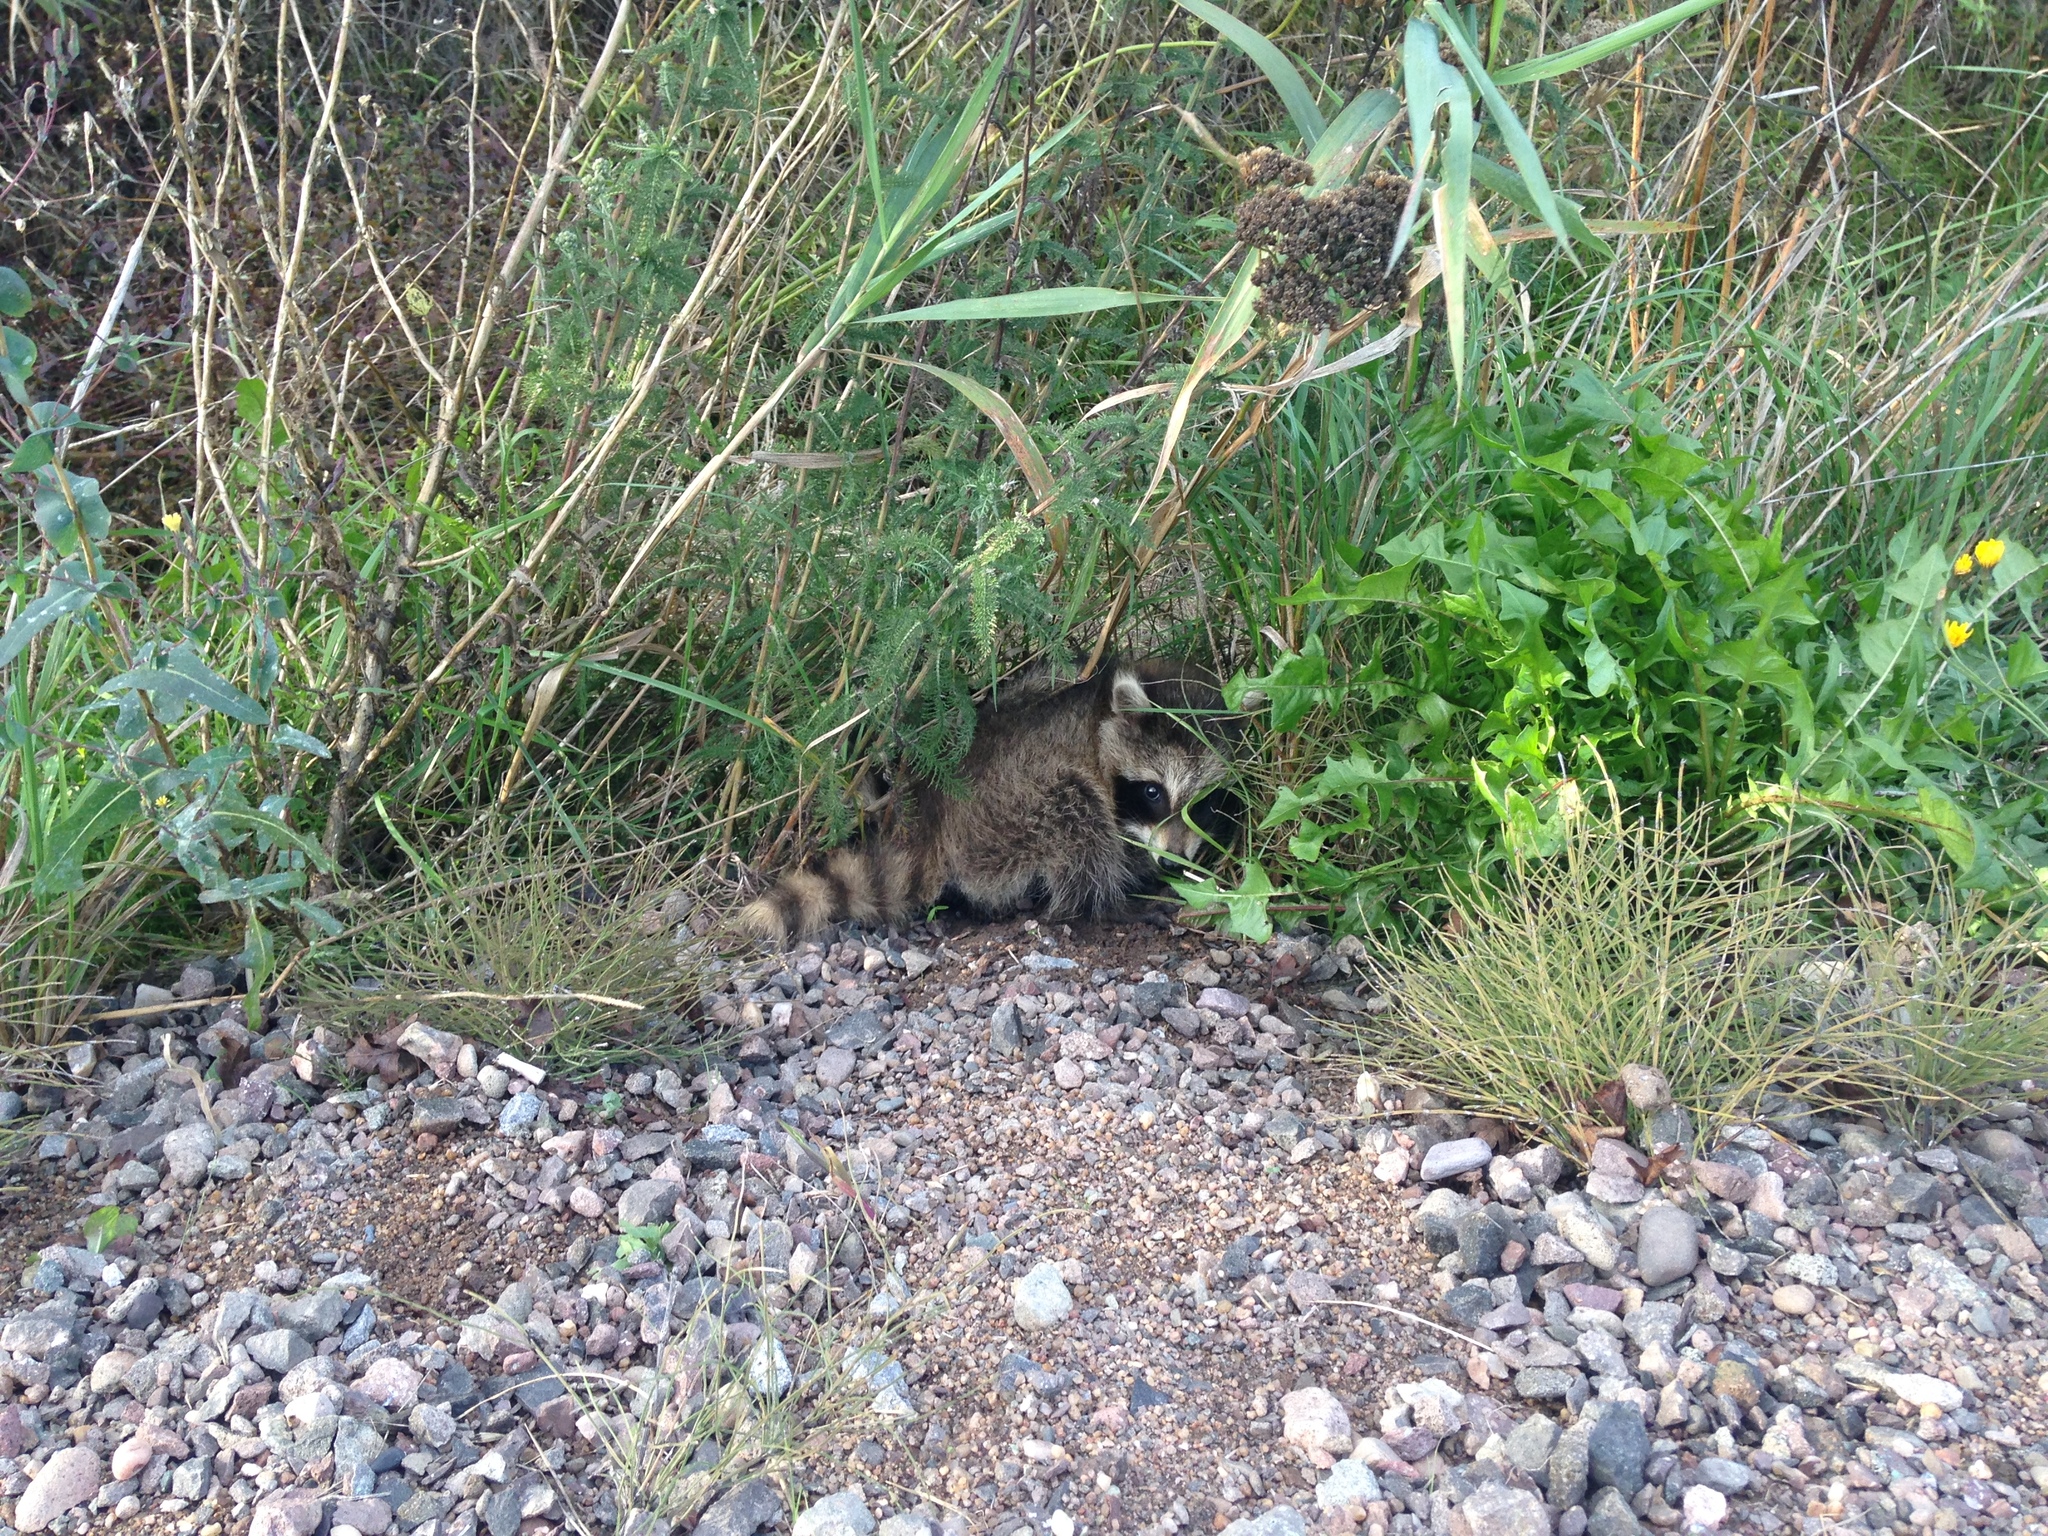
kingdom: Animalia
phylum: Chordata
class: Mammalia
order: Carnivora
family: Procyonidae
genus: Procyon
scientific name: Procyon lotor
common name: Raccoon
